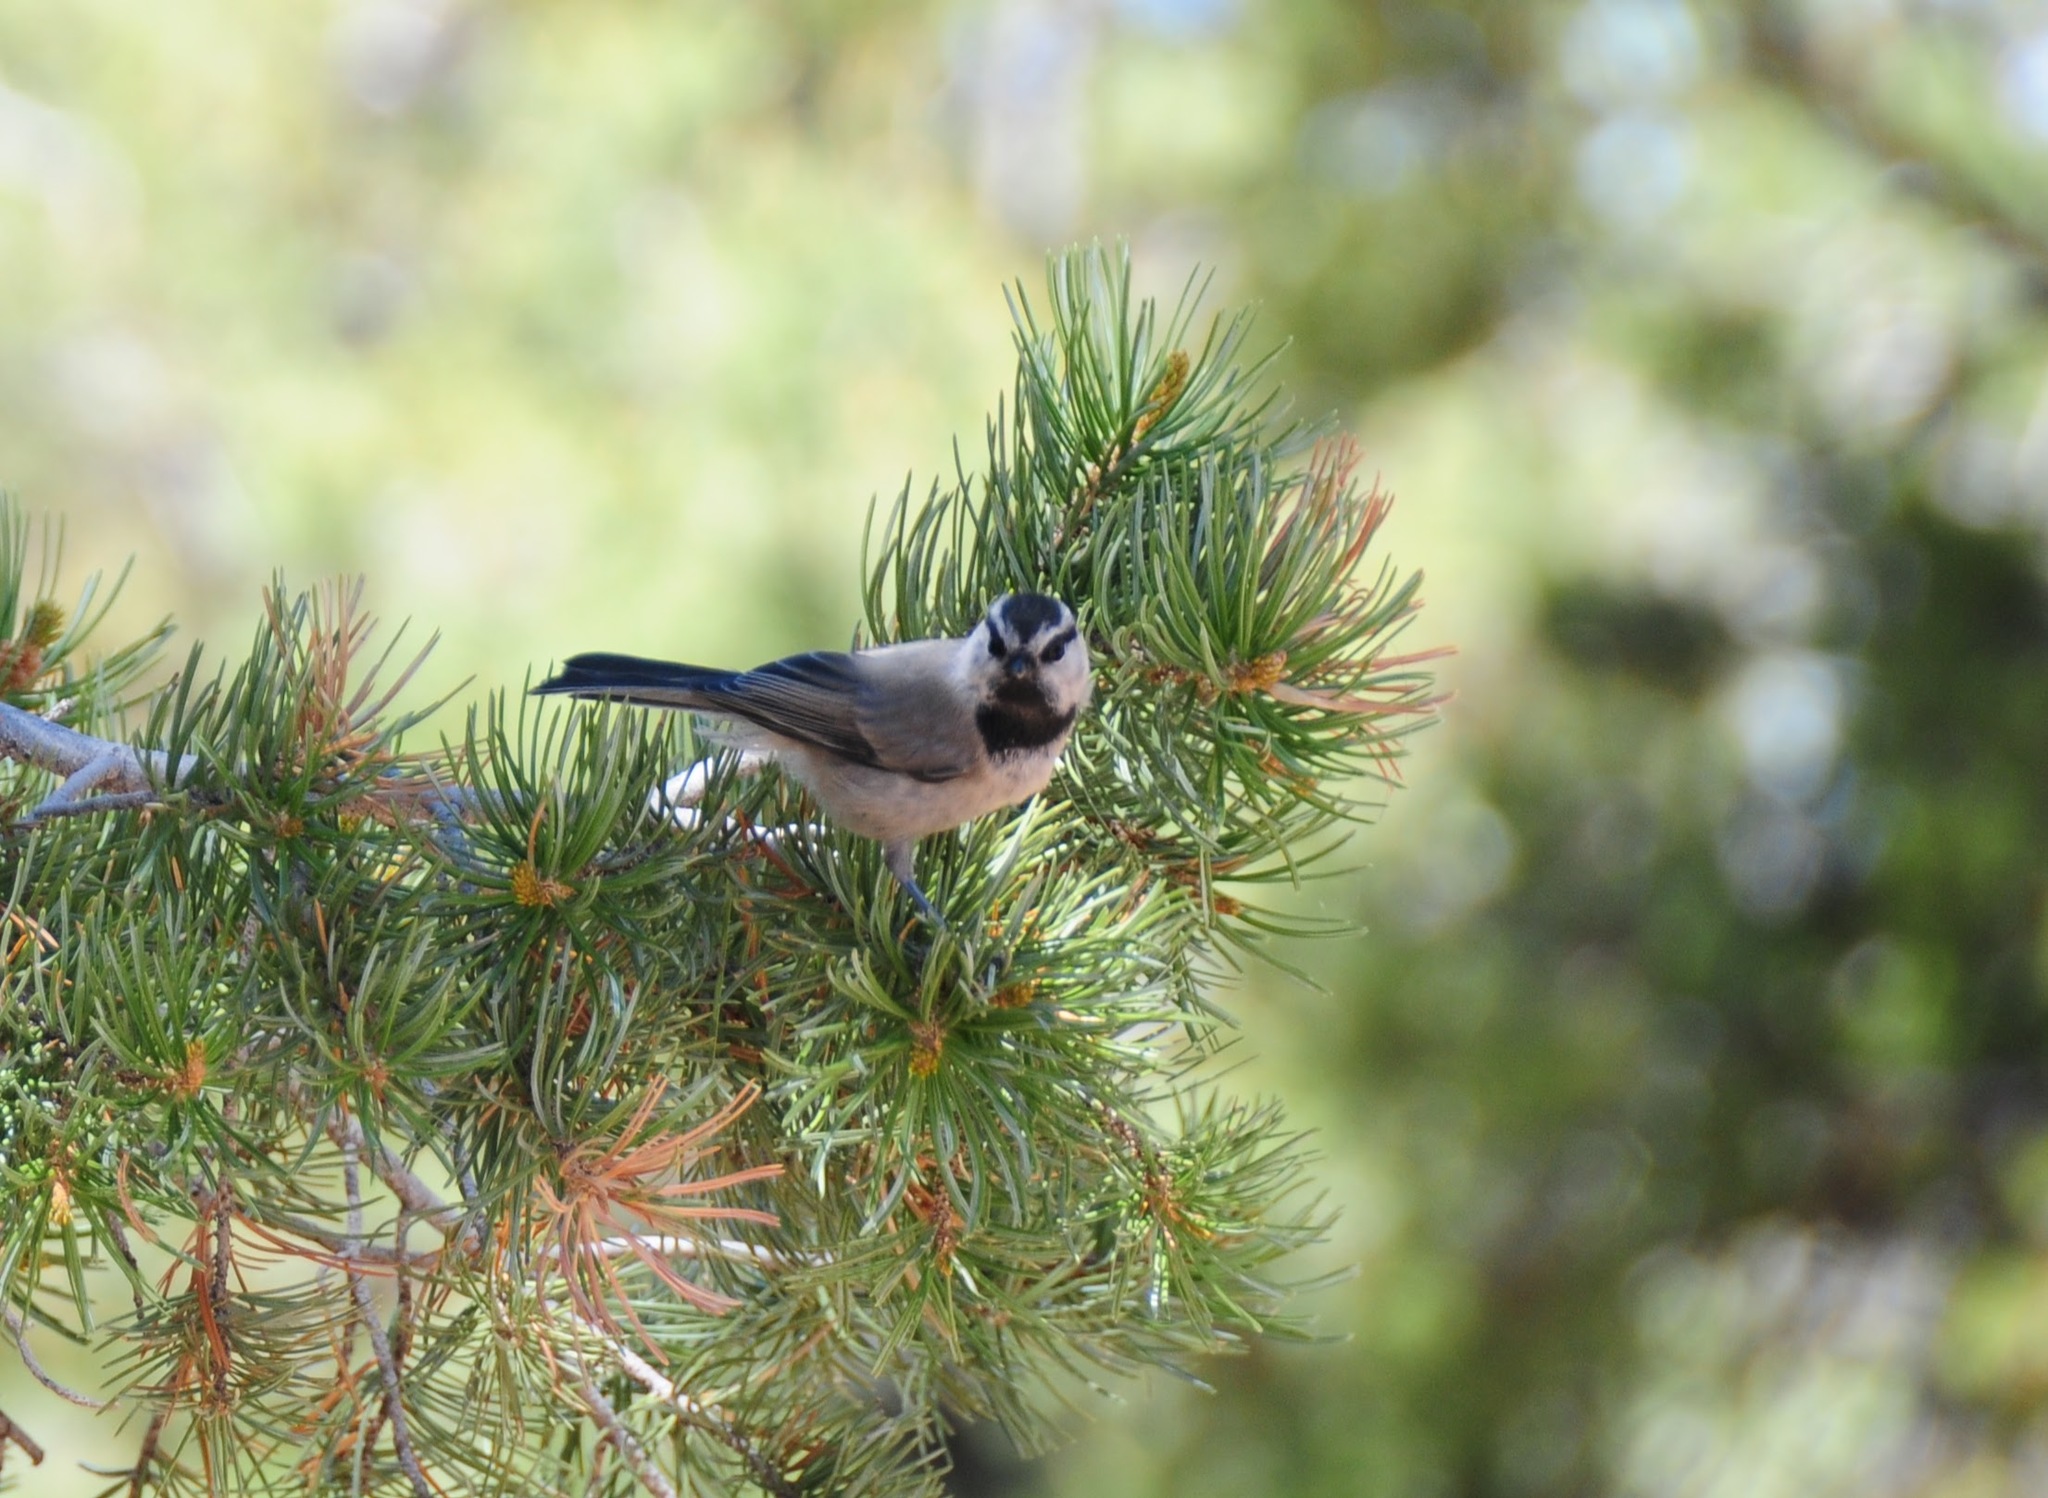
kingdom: Animalia
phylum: Chordata
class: Aves
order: Passeriformes
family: Paridae
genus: Poecile
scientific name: Poecile gambeli
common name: Mountain chickadee
